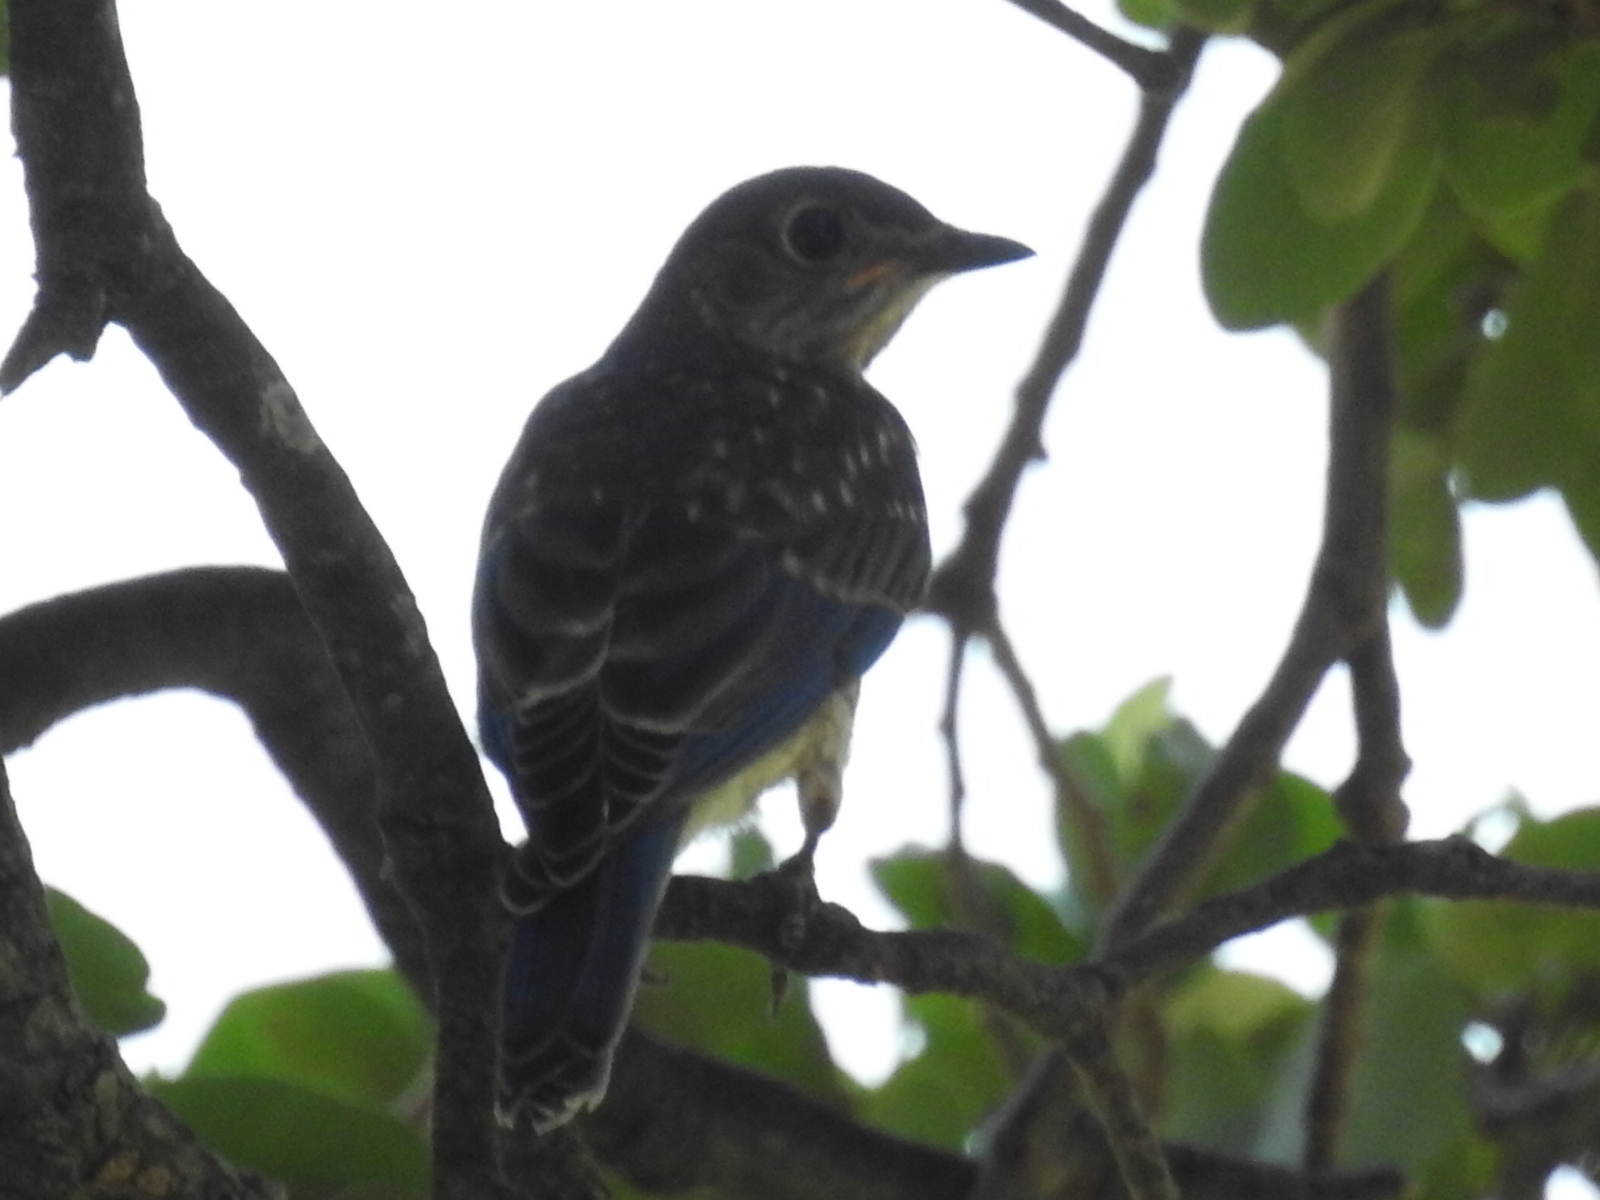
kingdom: Animalia
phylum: Chordata
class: Aves
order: Passeriformes
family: Turdidae
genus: Sialia
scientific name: Sialia sialis
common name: Eastern bluebird
